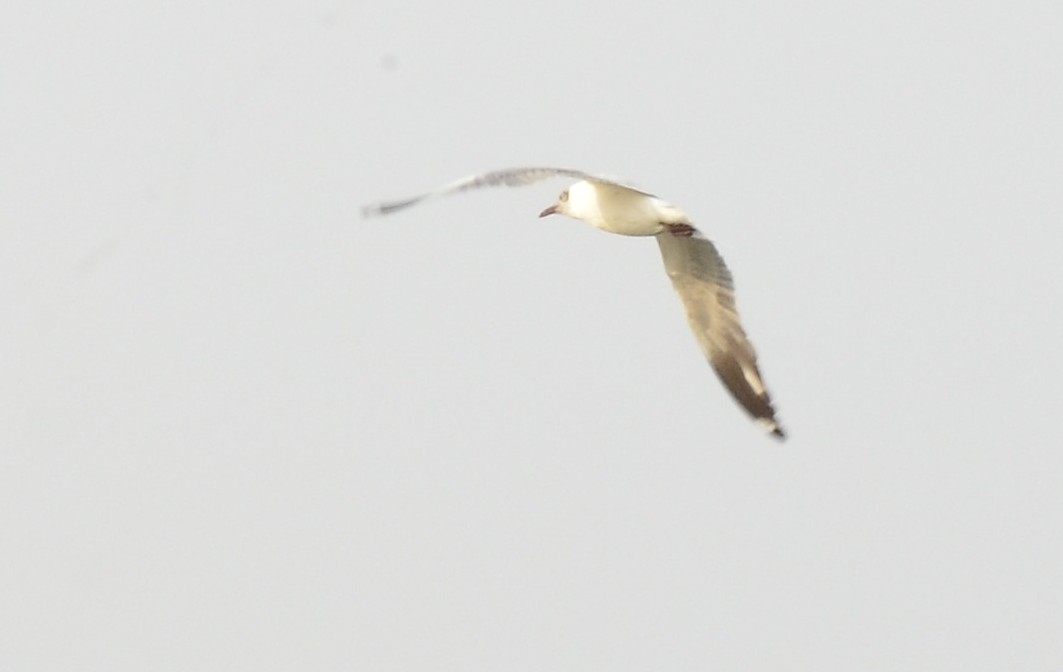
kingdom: Animalia
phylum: Chordata
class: Aves
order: Charadriiformes
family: Laridae
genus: Chroicocephalus
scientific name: Chroicocephalus brunnicephalus
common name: Brown-headed gull
